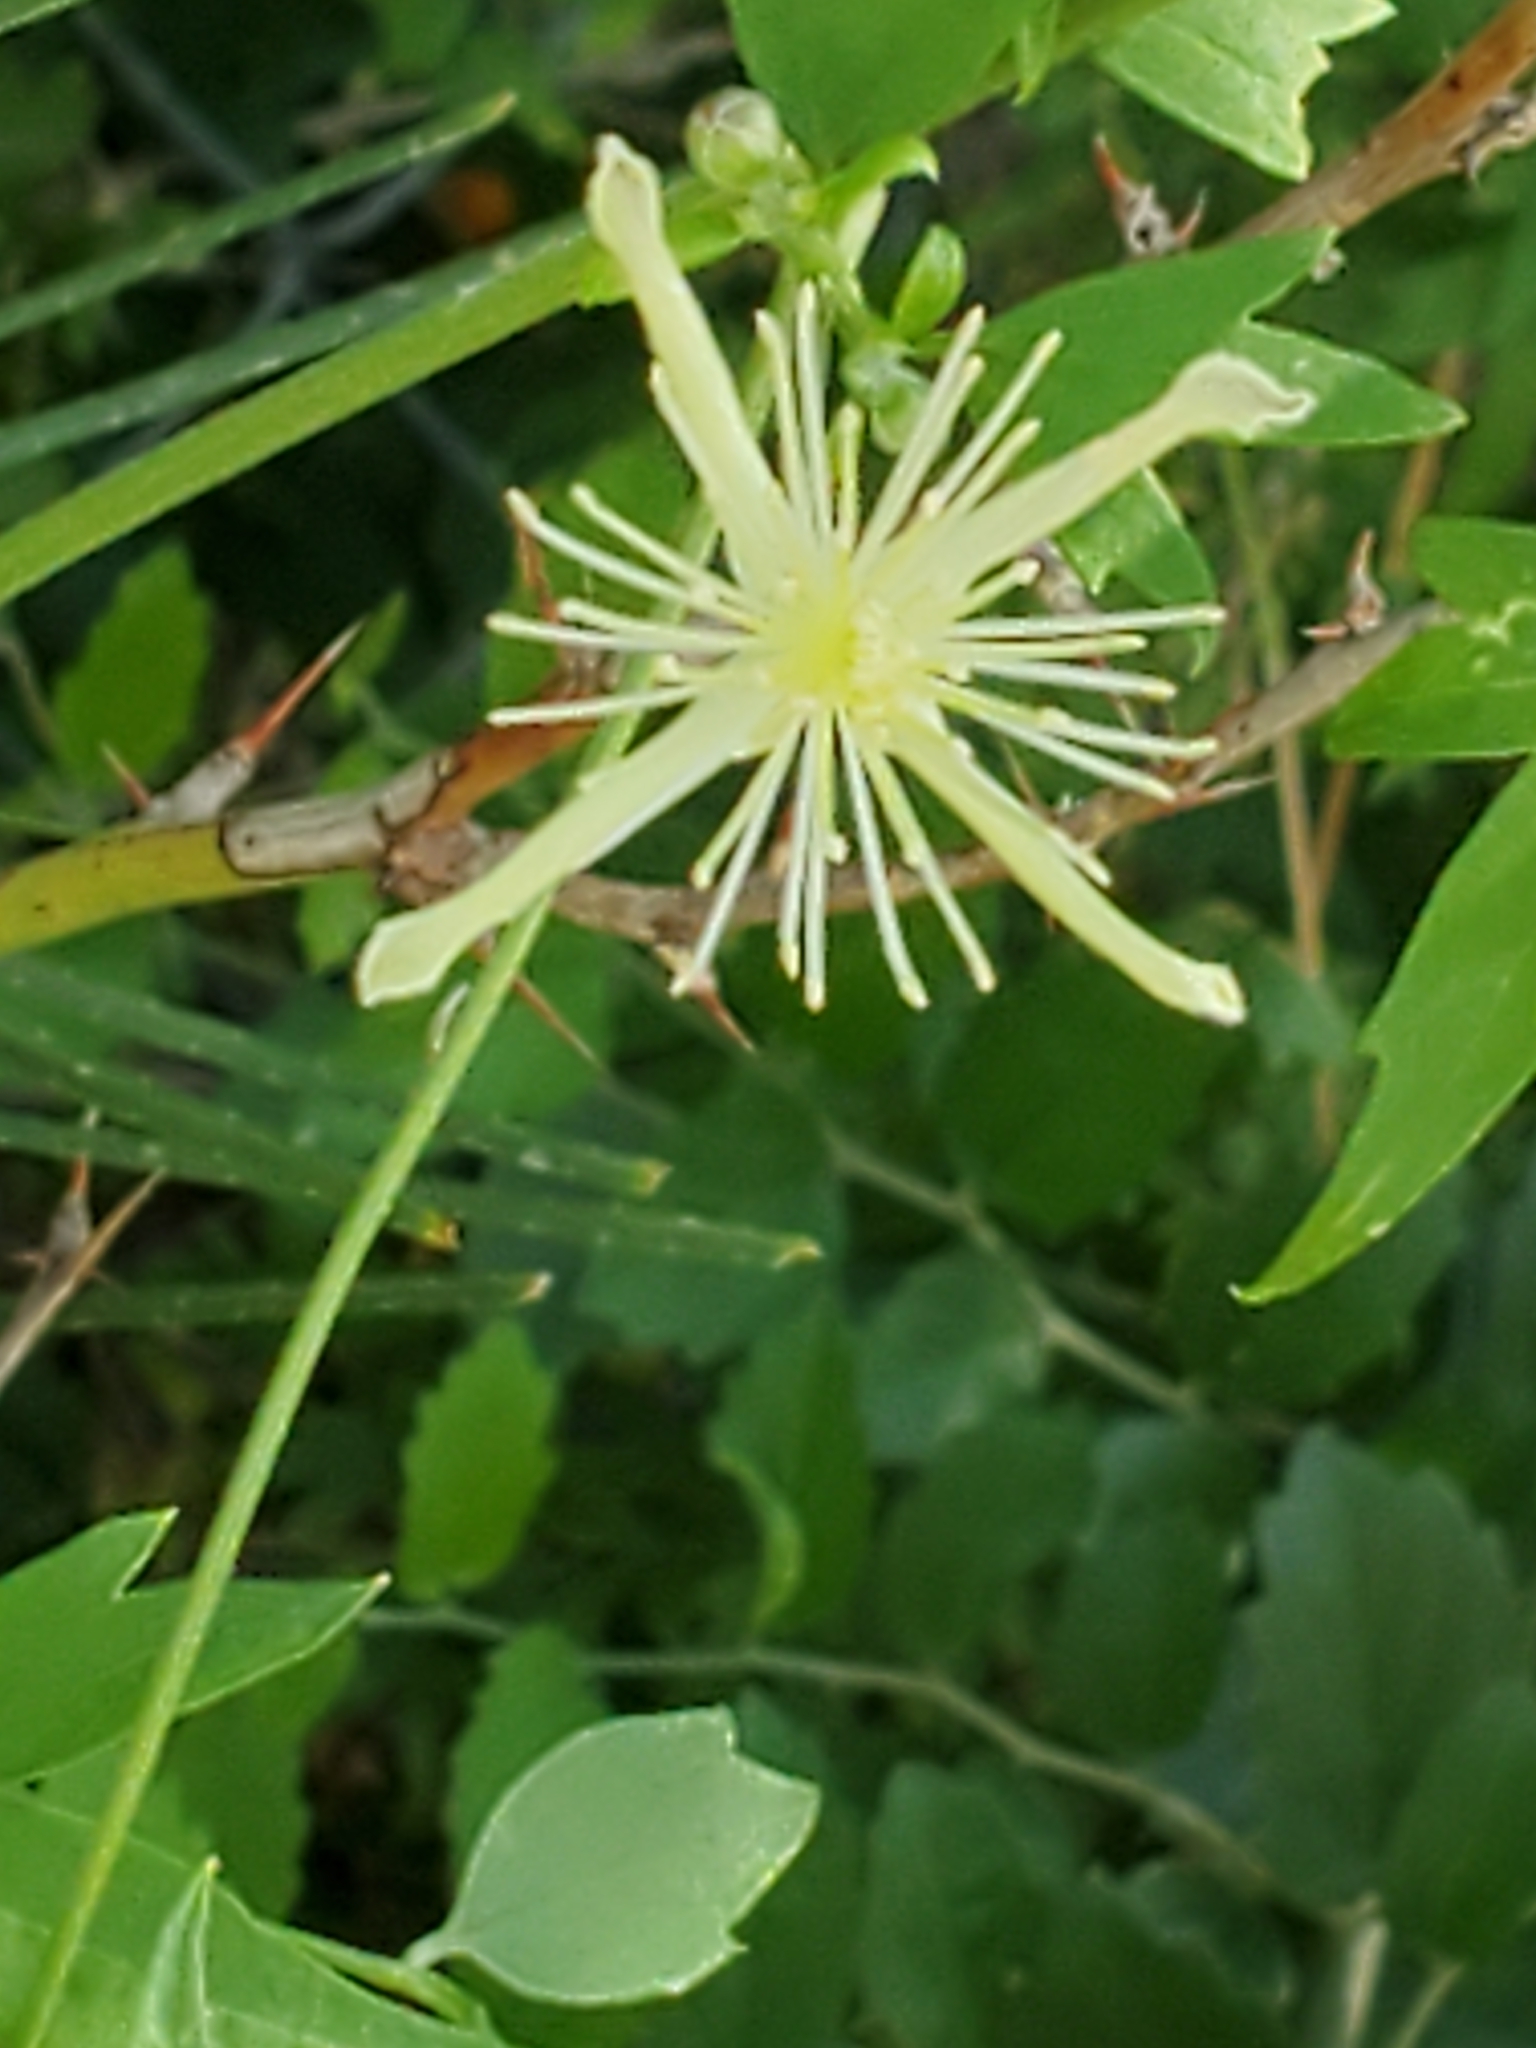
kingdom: Plantae
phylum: Tracheophyta
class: Magnoliopsida
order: Ranunculales
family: Ranunculaceae
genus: Clematis
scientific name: Clematis drummondii
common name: Texas virgin's bower
